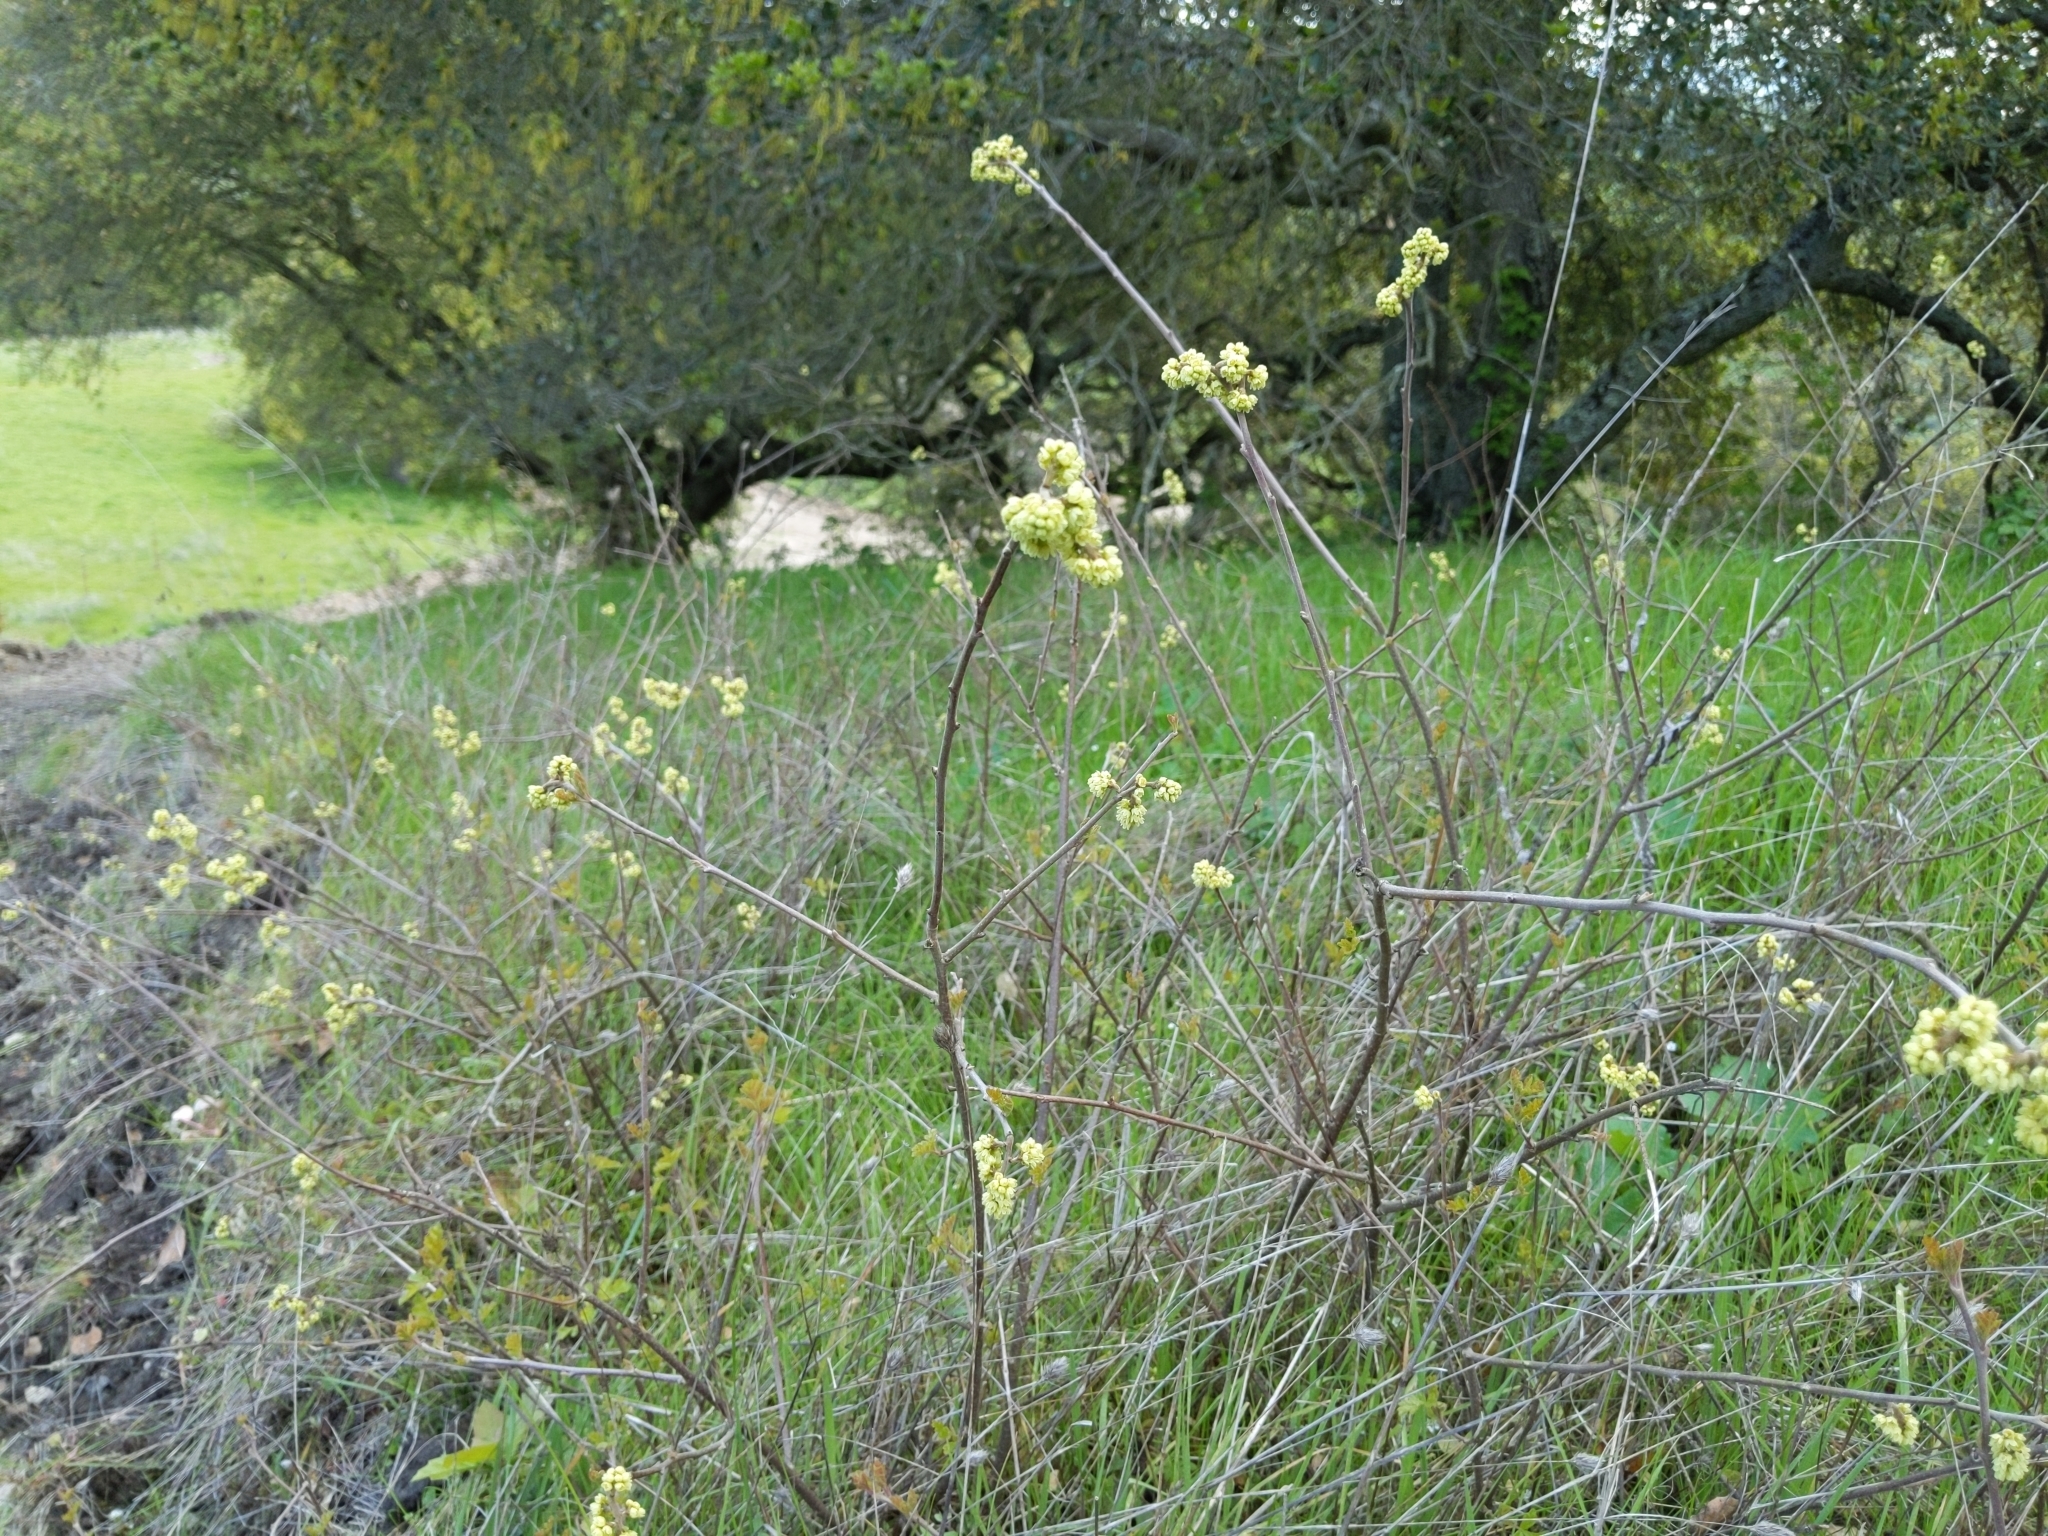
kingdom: Plantae
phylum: Tracheophyta
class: Magnoliopsida
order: Sapindales
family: Anacardiaceae
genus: Rhus
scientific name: Rhus aromatica
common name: Aromatic sumac
